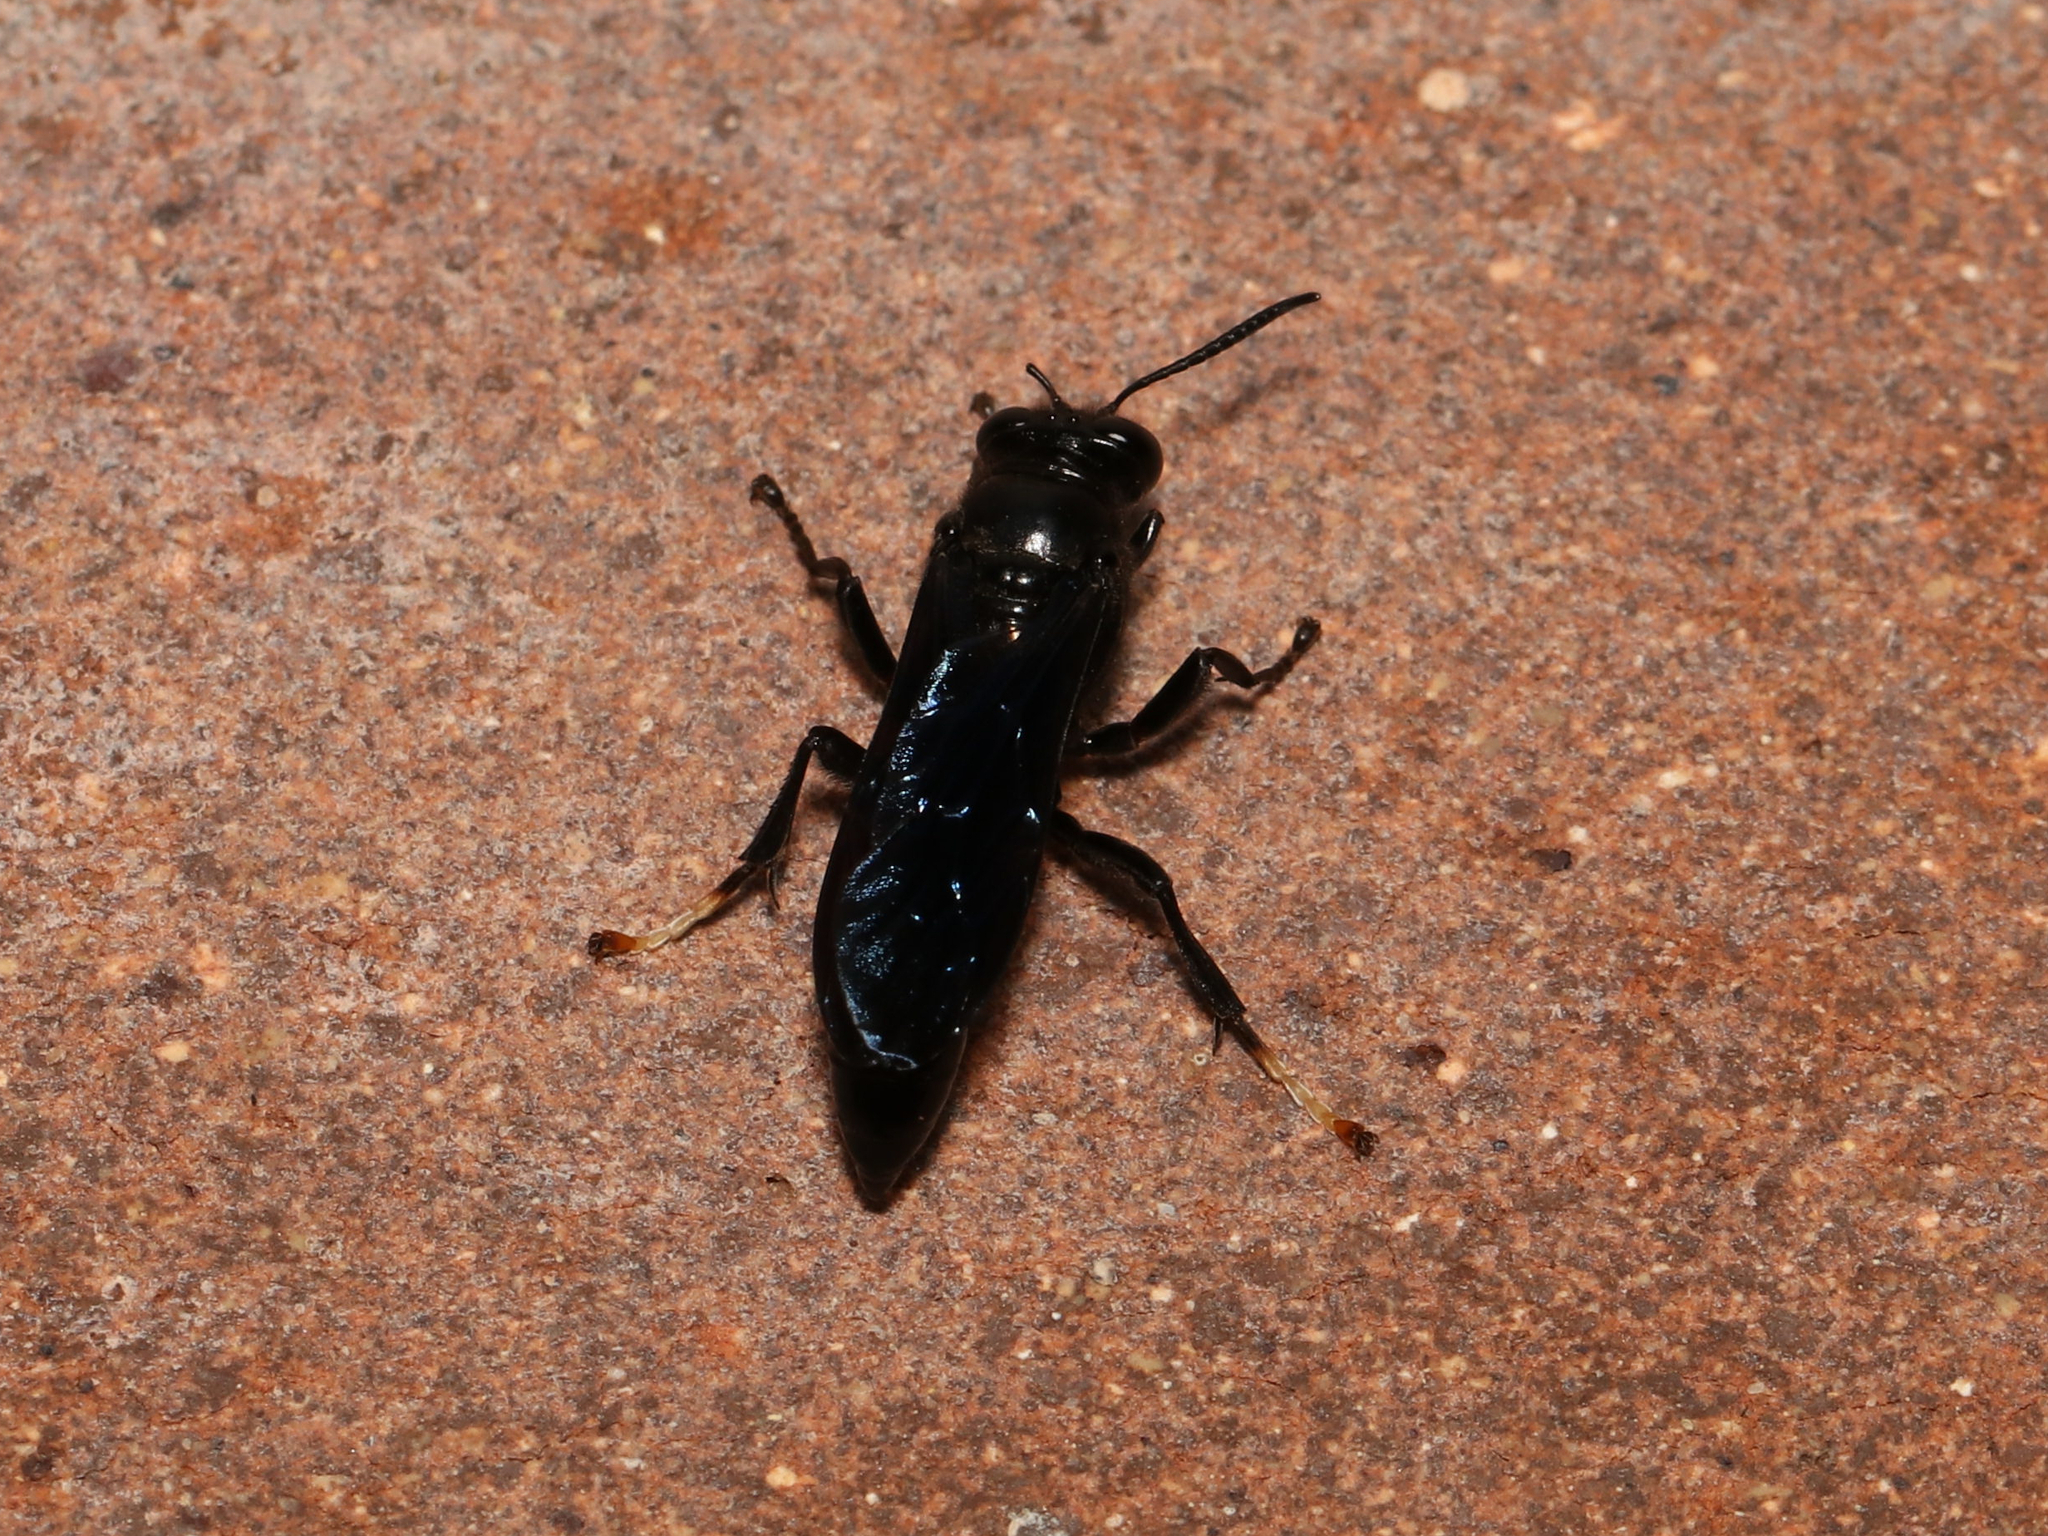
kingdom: Animalia
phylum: Arthropoda
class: Insecta
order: Hymenoptera
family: Crabronidae
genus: Trypoxylon
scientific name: Trypoxylon politum
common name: Organ-pipe mud-dauber wasp
